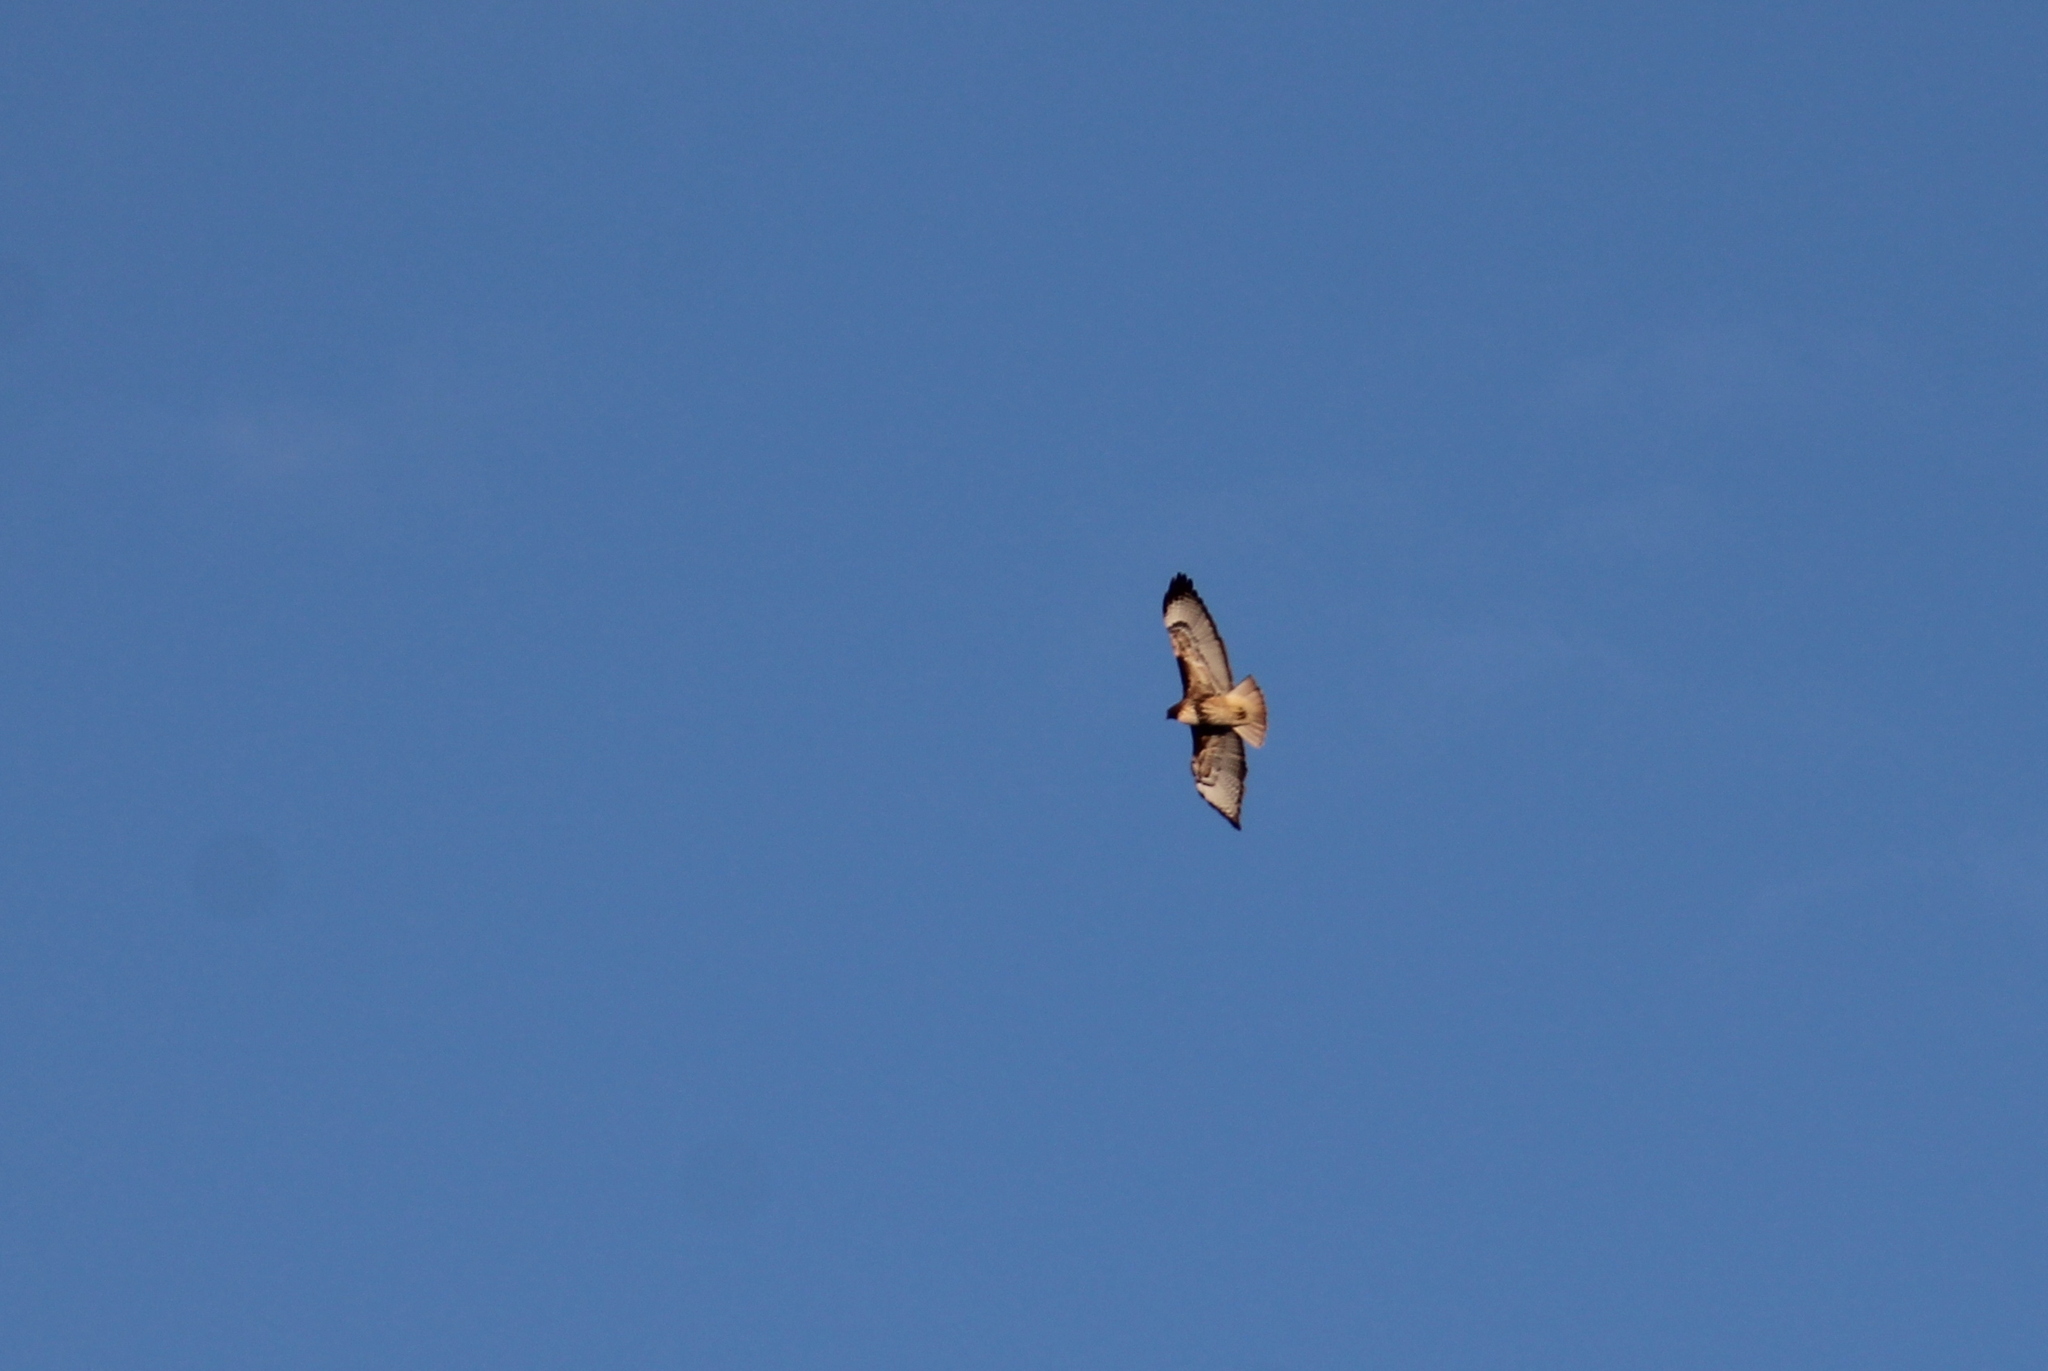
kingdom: Animalia
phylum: Chordata
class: Aves
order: Accipitriformes
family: Accipitridae
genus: Buteo
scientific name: Buteo jamaicensis
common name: Red-tailed hawk
